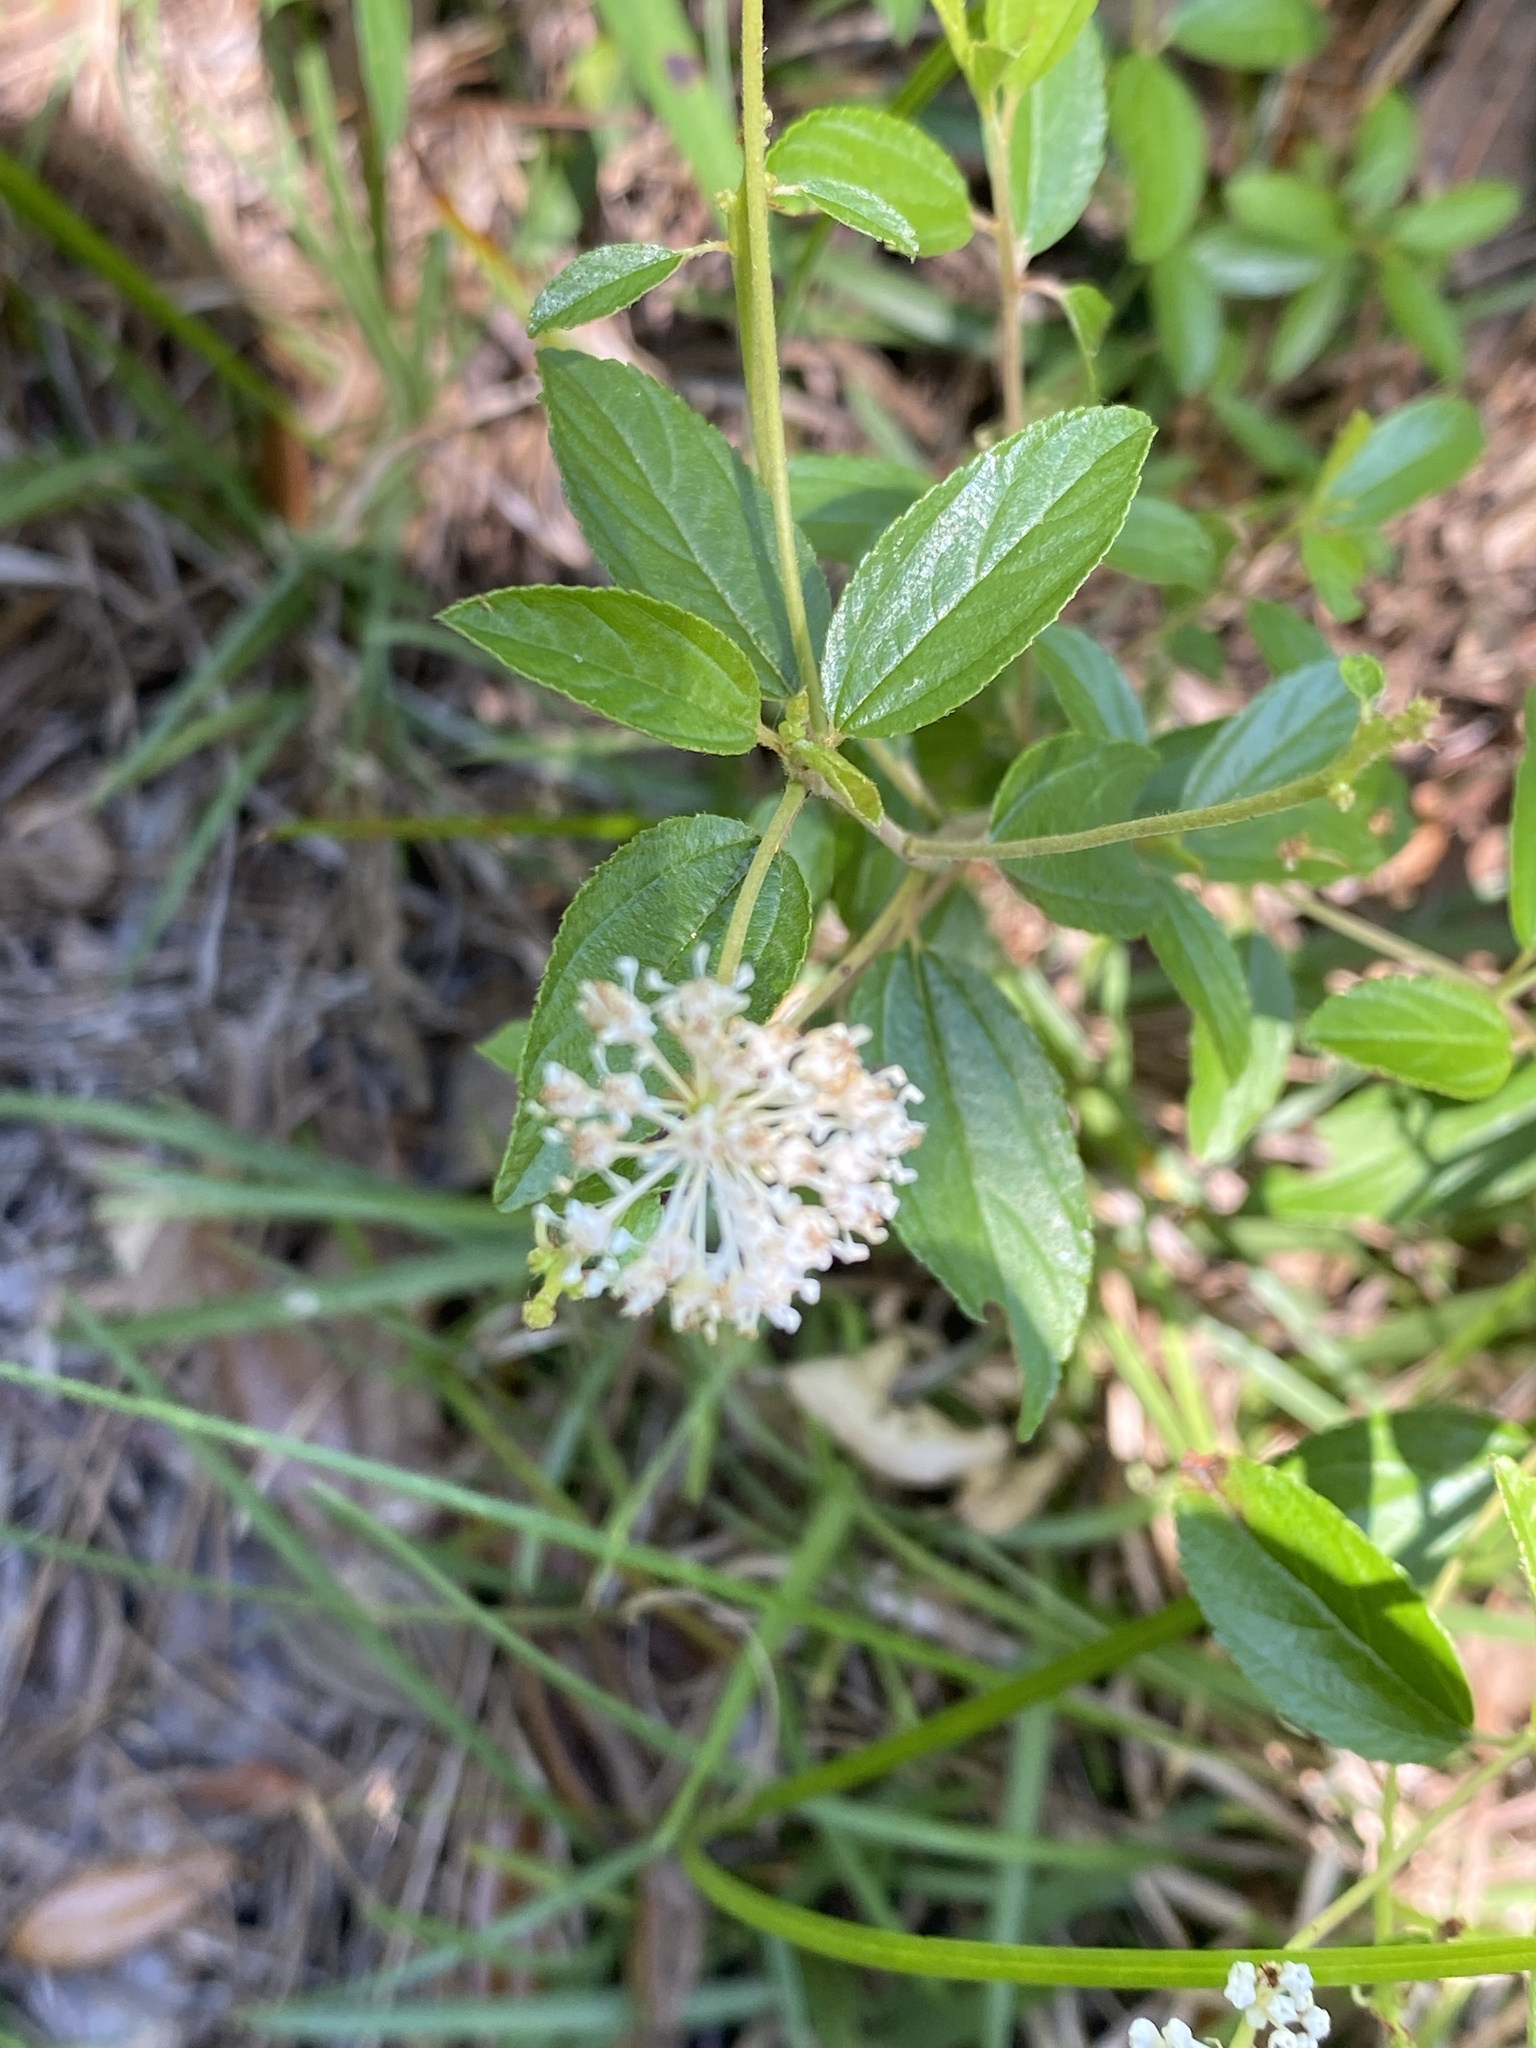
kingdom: Plantae
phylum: Tracheophyta
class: Magnoliopsida
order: Rosales
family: Rhamnaceae
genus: Ceanothus
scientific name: Ceanothus americanus
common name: Redroot
